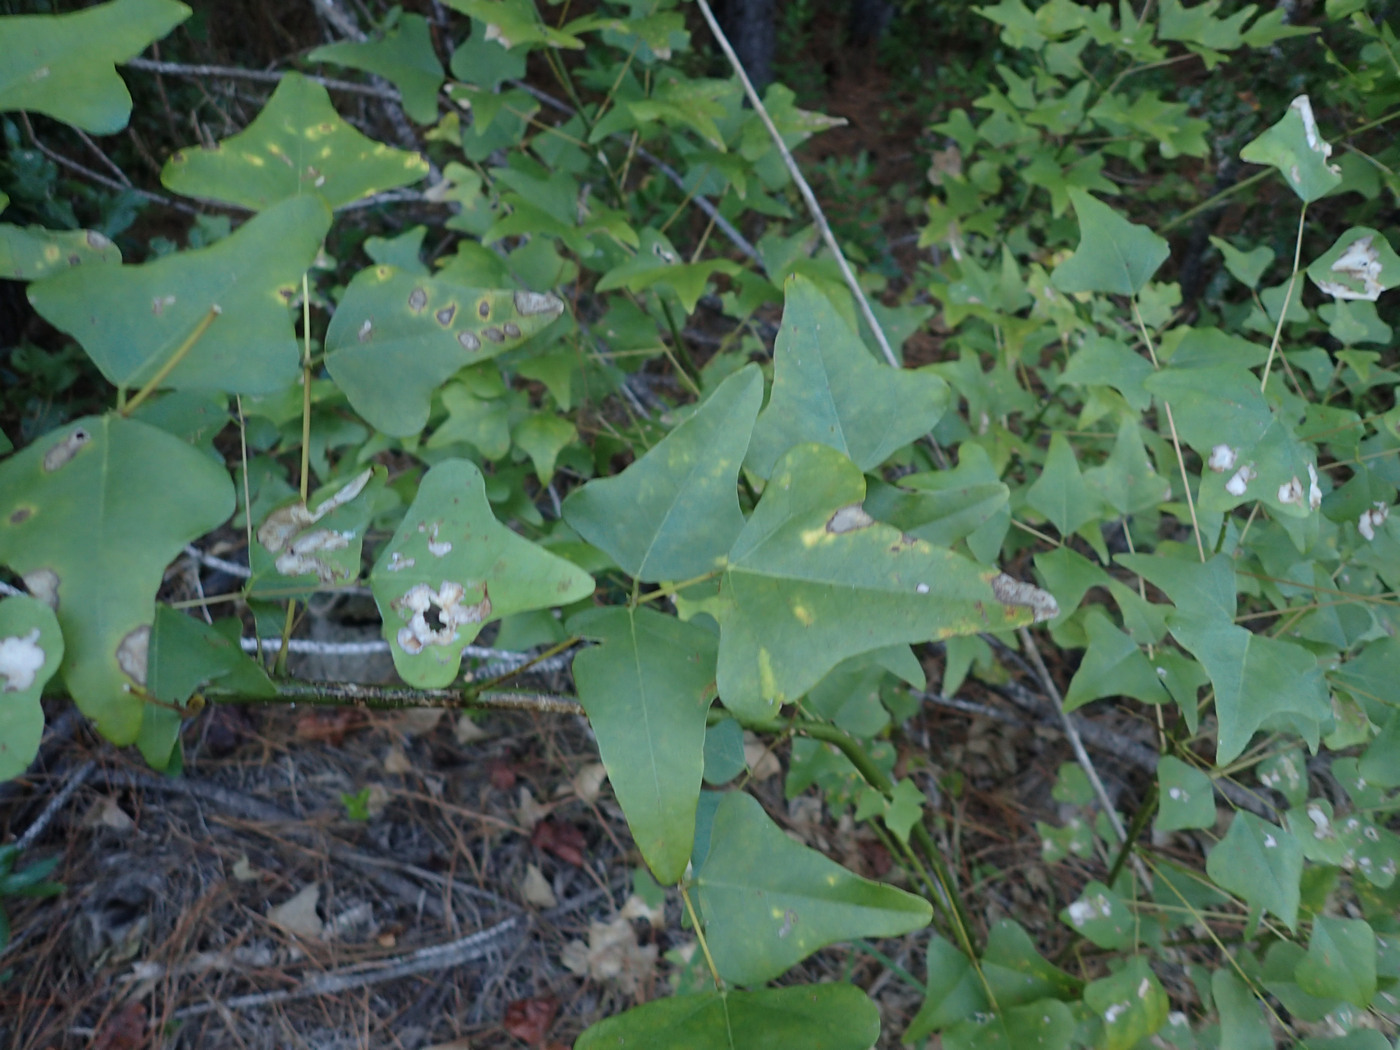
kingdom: Plantae
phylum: Tracheophyta
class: Magnoliopsida
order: Fabales
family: Fabaceae
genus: Erythrina
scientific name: Erythrina herbacea
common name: Coral-bean
